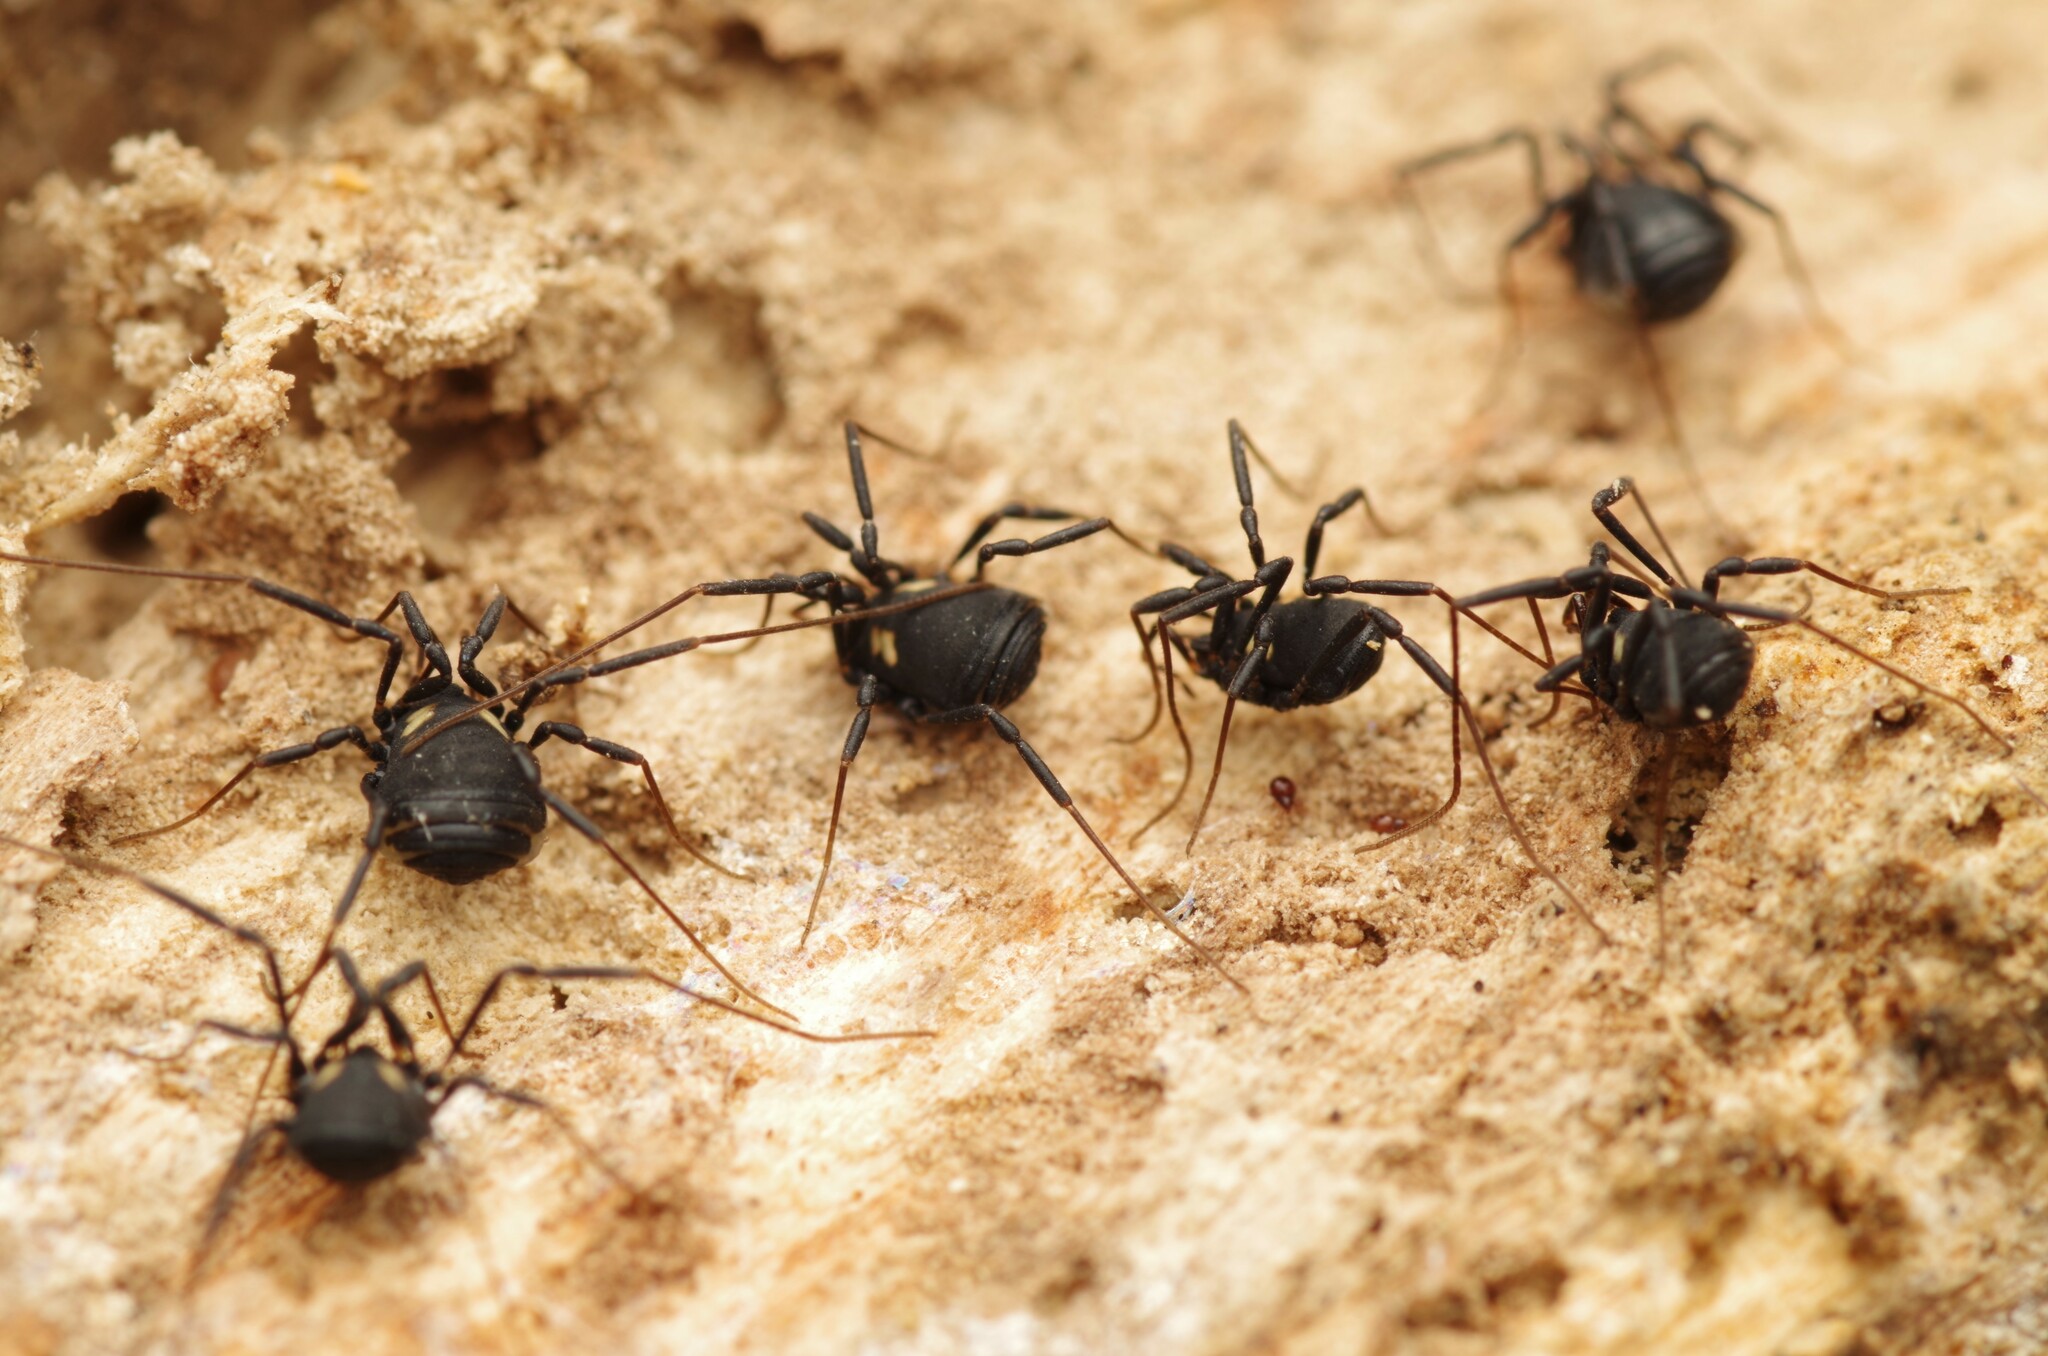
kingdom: Animalia
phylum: Arthropoda
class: Arachnida
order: Opiliones
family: Nemastomatidae
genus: Nemastoma
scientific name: Nemastoma bimaculatum
